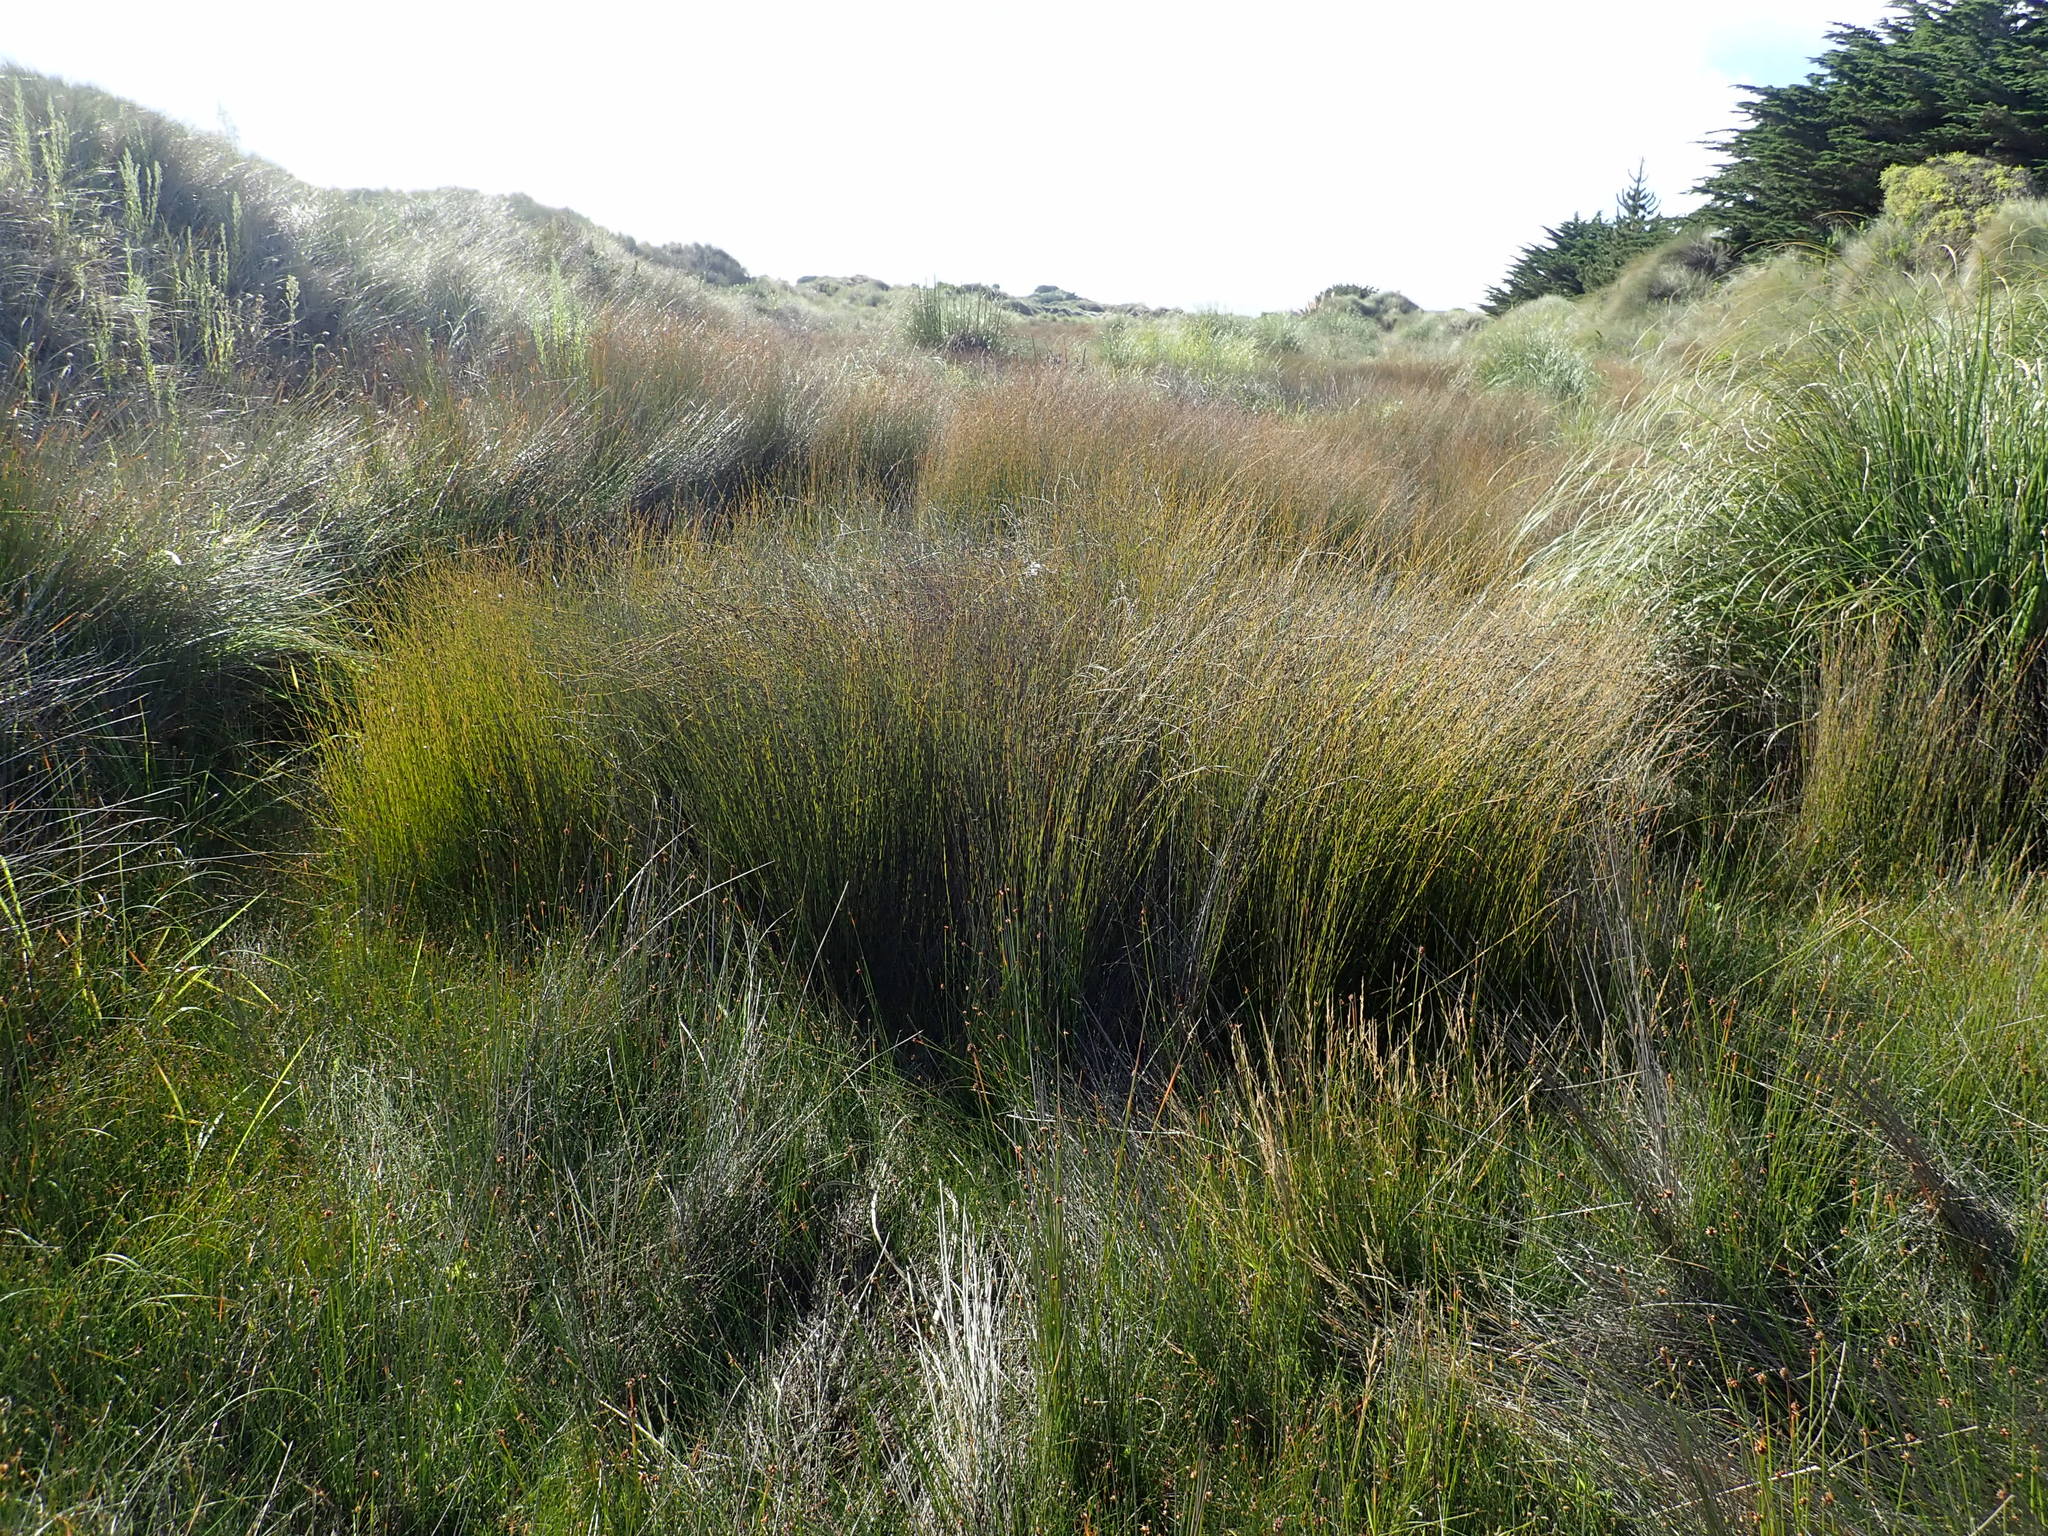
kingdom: Plantae
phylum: Tracheophyta
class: Liliopsida
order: Poales
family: Restionaceae
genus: Apodasmia
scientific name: Apodasmia similis
